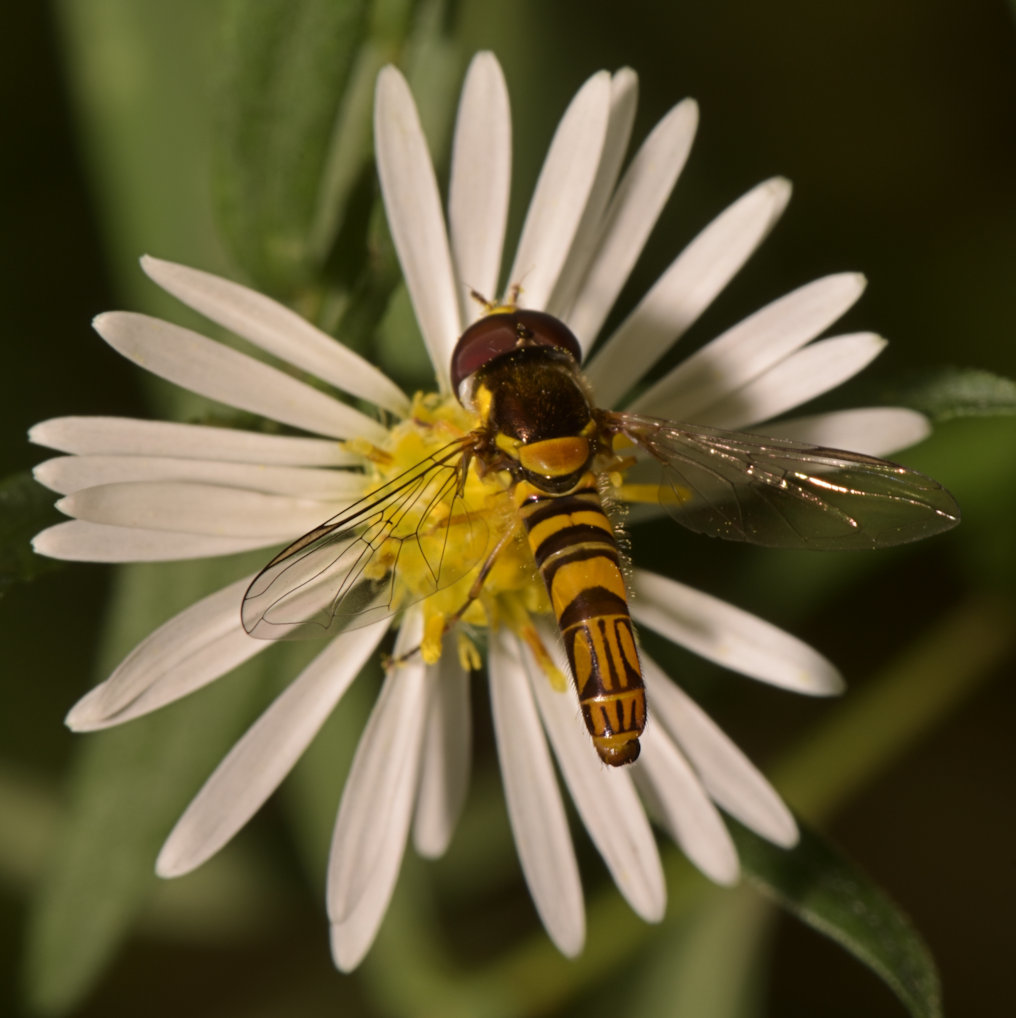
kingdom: Animalia
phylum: Arthropoda
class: Insecta
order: Diptera
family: Syrphidae
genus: Allograpta
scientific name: Allograpta obliqua
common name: Common oblique syrphid
